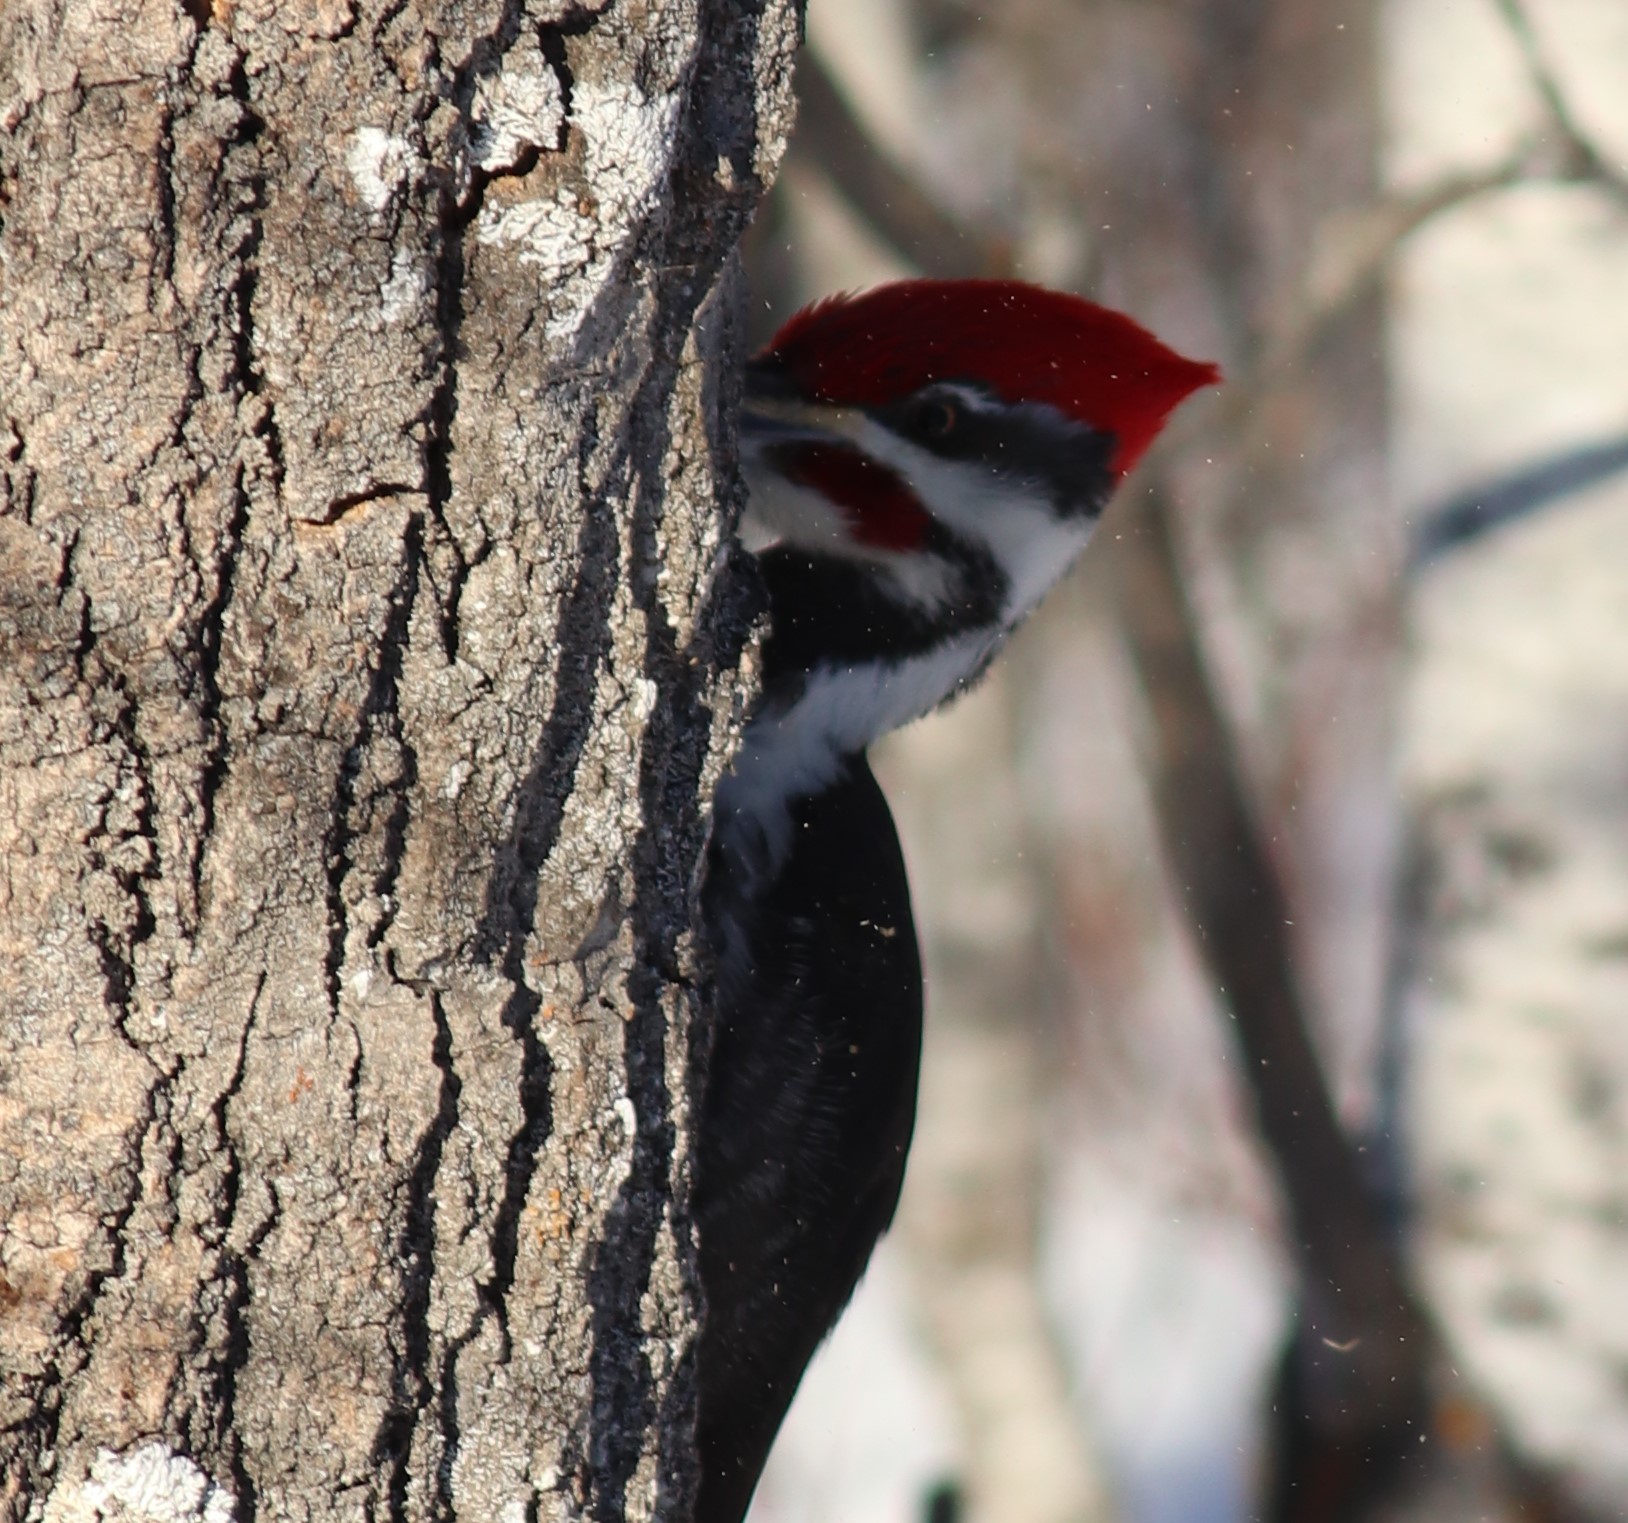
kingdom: Animalia
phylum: Chordata
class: Aves
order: Piciformes
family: Picidae
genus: Dryocopus
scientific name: Dryocopus pileatus
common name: Pileated woodpecker
